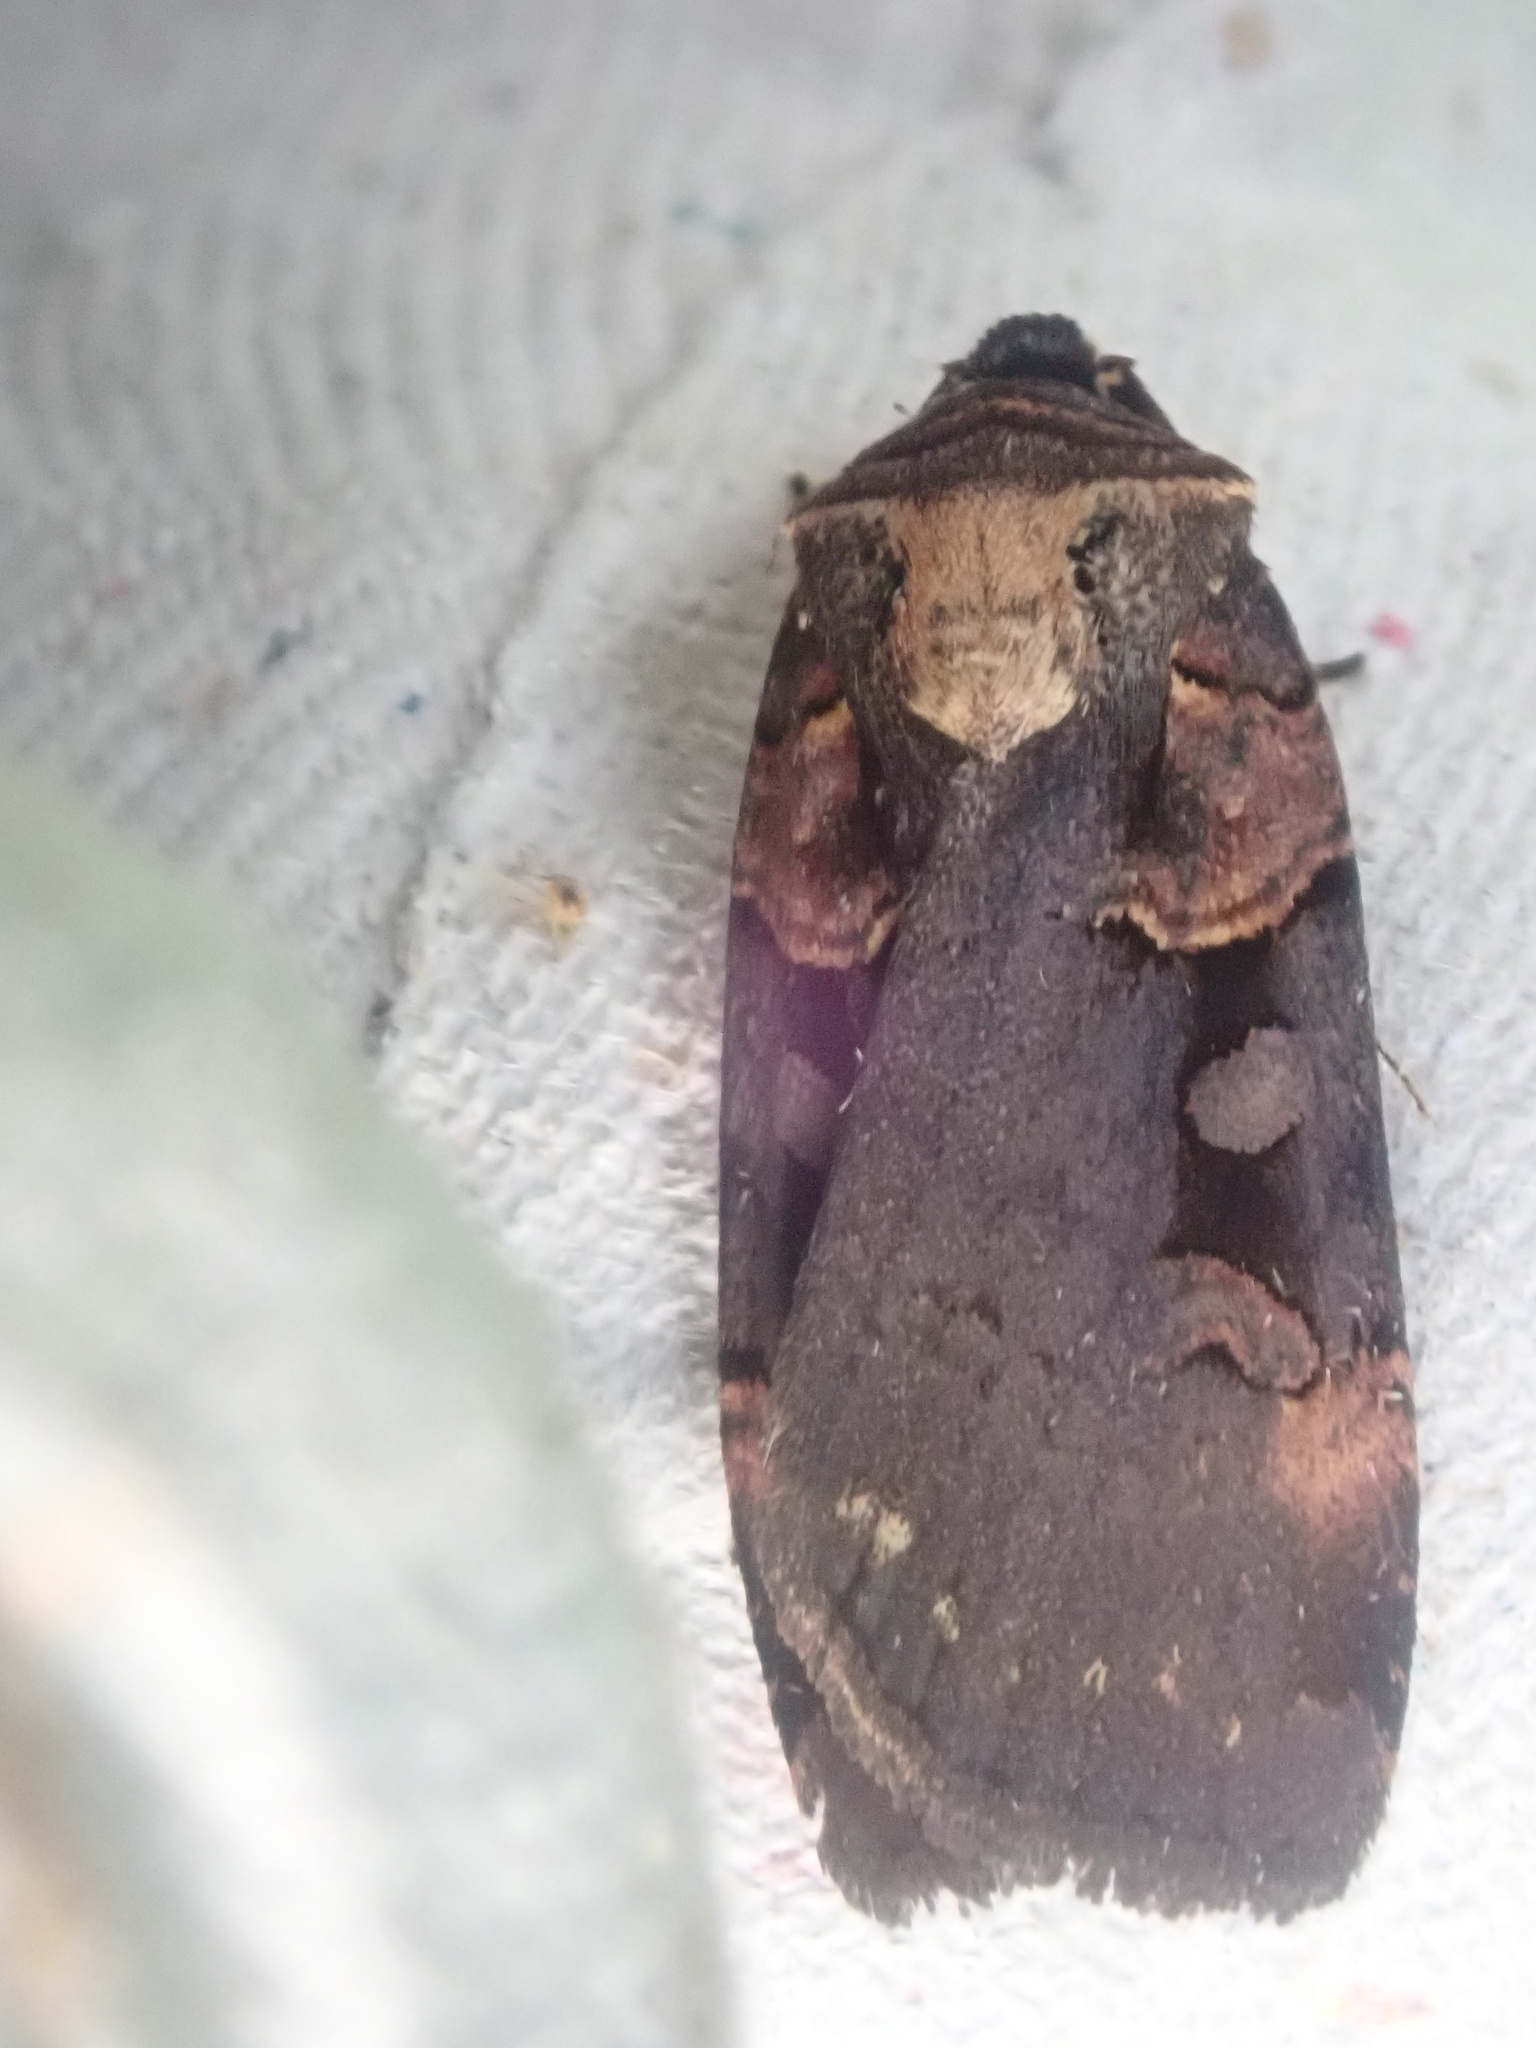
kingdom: Animalia
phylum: Arthropoda
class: Insecta
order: Lepidoptera
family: Noctuidae
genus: Pseudohermonassa
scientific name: Pseudohermonassa bicarnea
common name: Pink spotted dart
